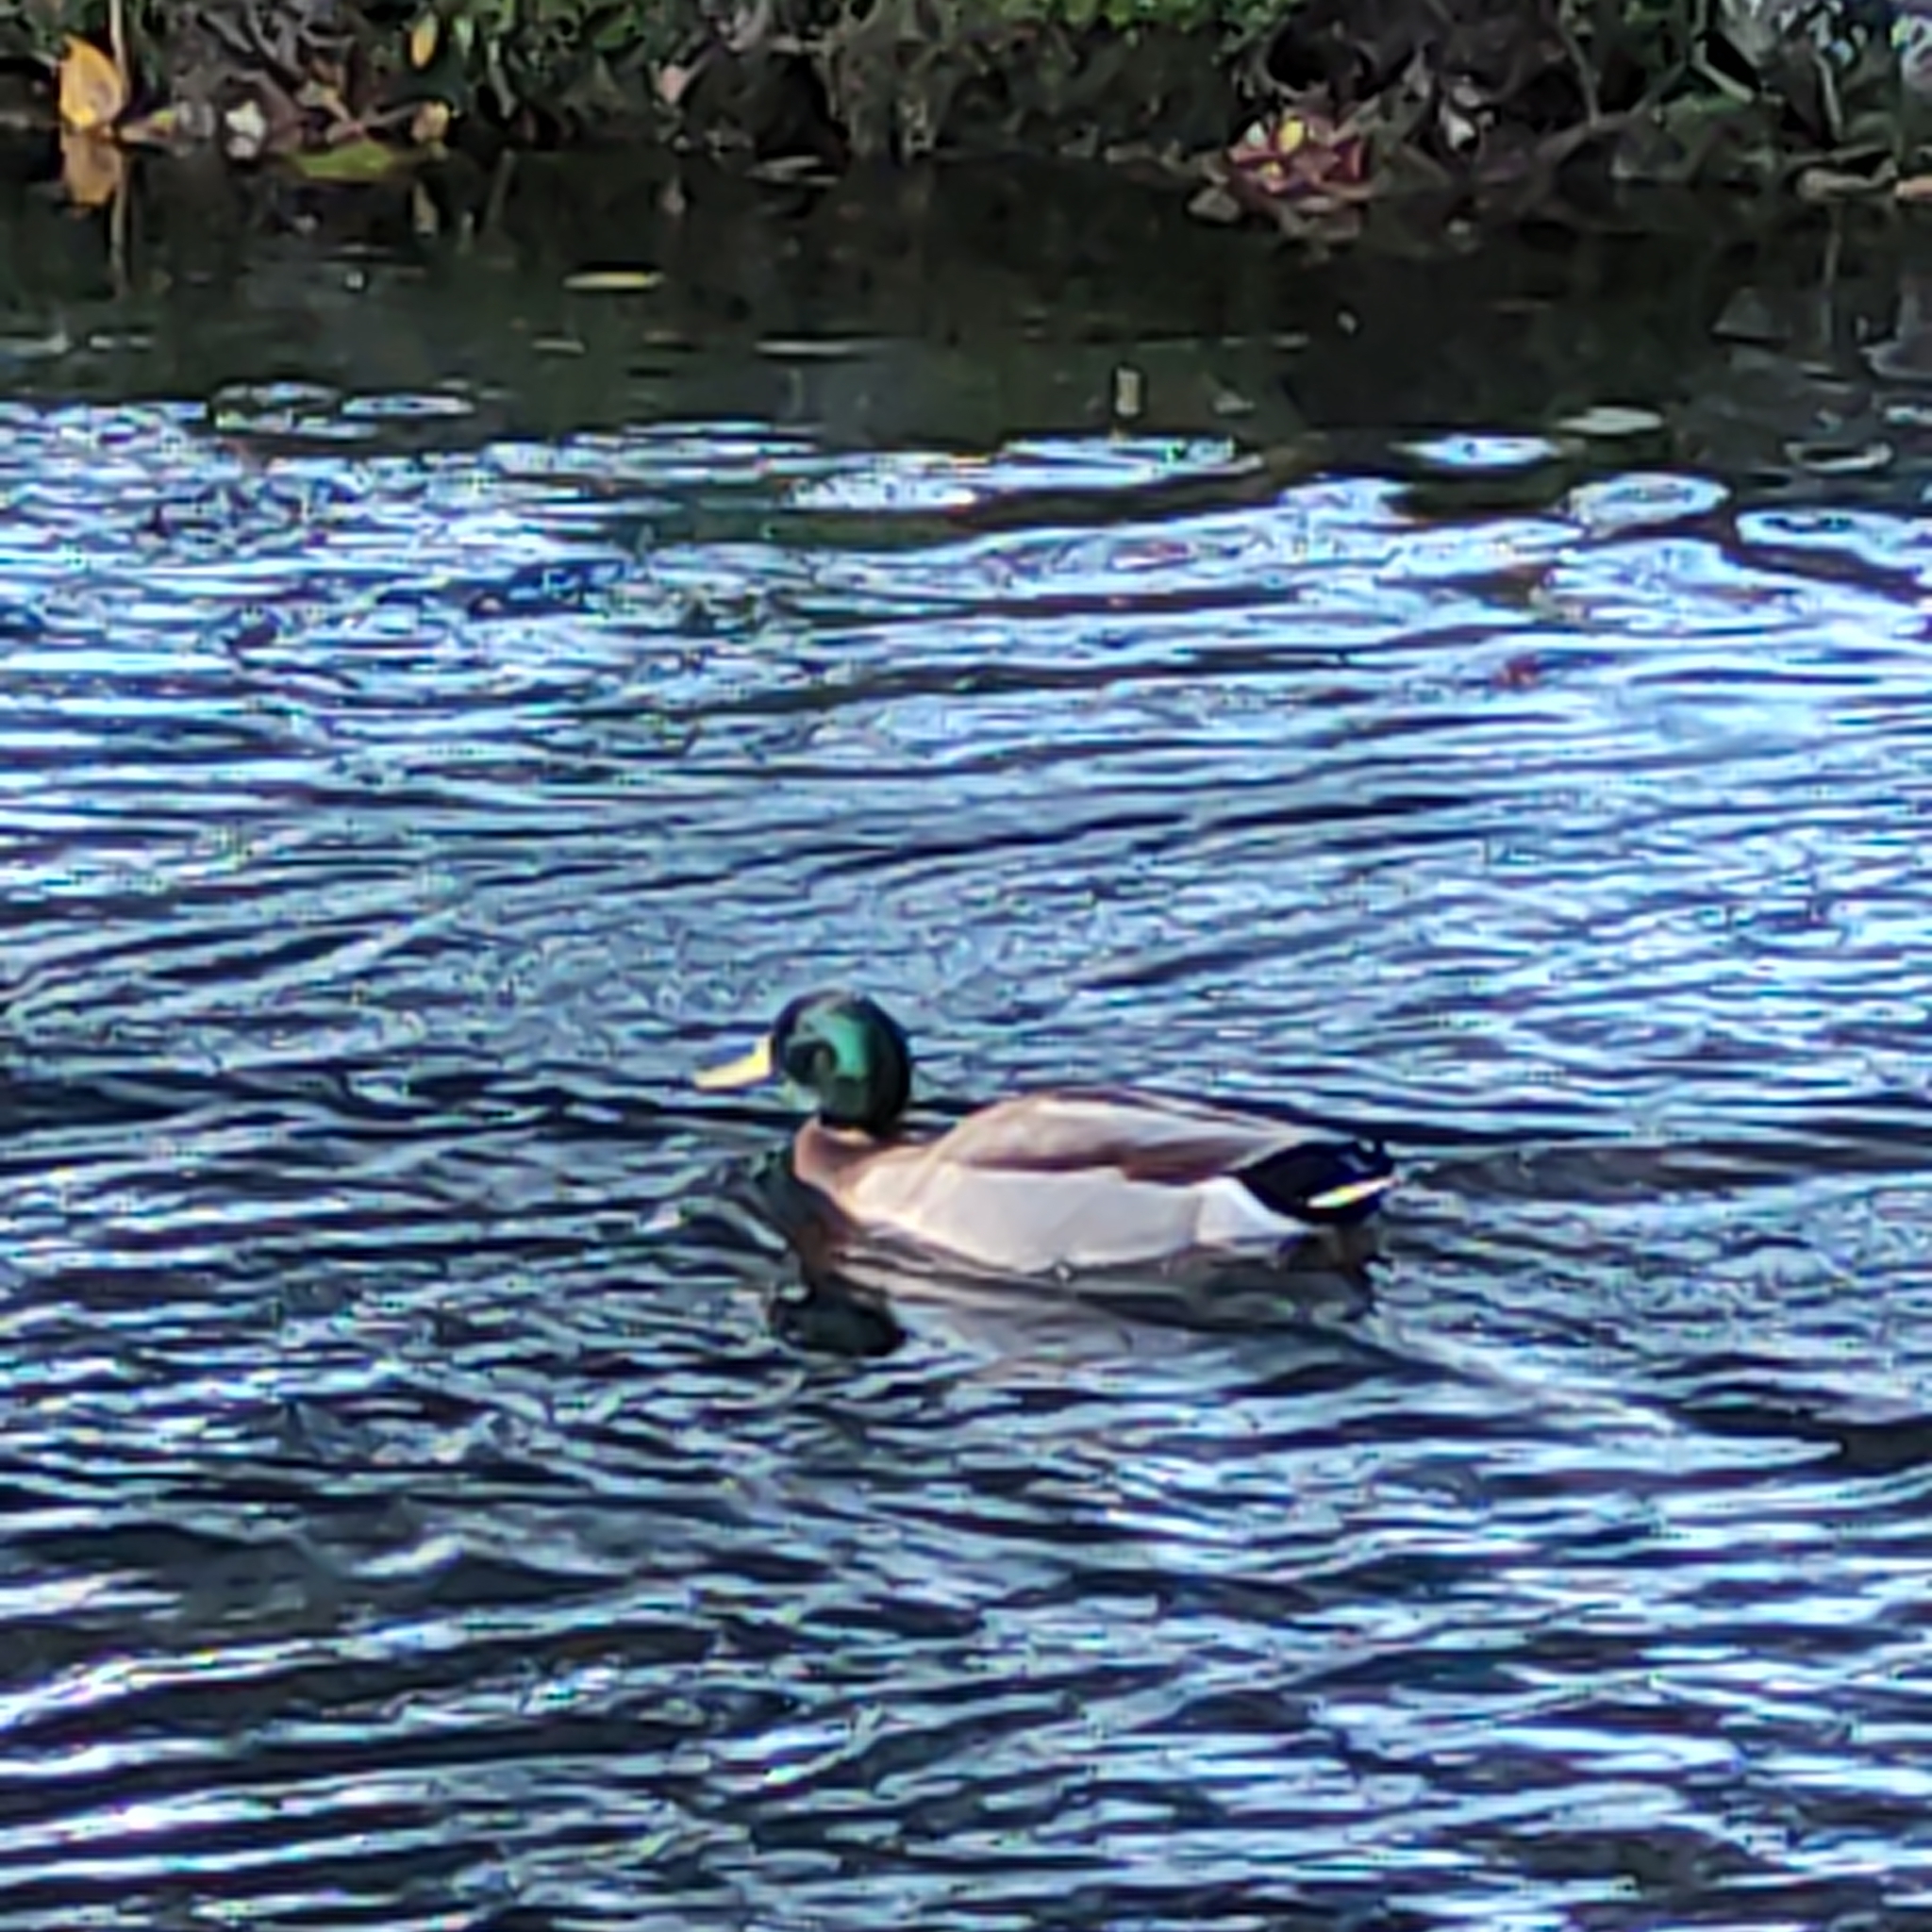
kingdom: Animalia
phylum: Chordata
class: Aves
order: Anseriformes
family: Anatidae
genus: Anas
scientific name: Anas platyrhynchos
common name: Mallard
